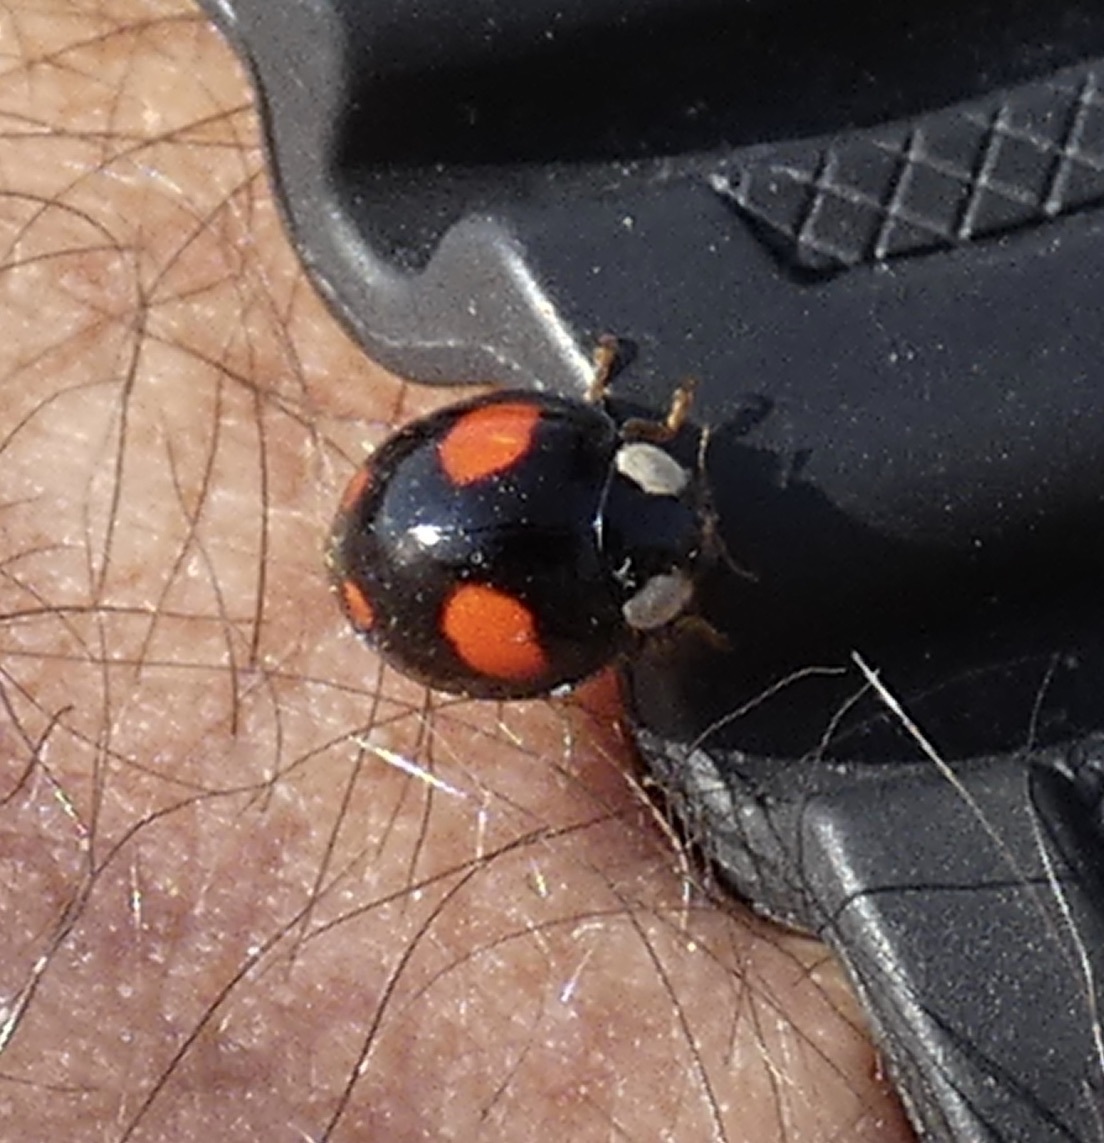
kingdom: Animalia
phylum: Arthropoda
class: Insecta
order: Coleoptera
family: Coccinellidae
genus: Harmonia
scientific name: Harmonia axyridis
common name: Harlequin ladybird
